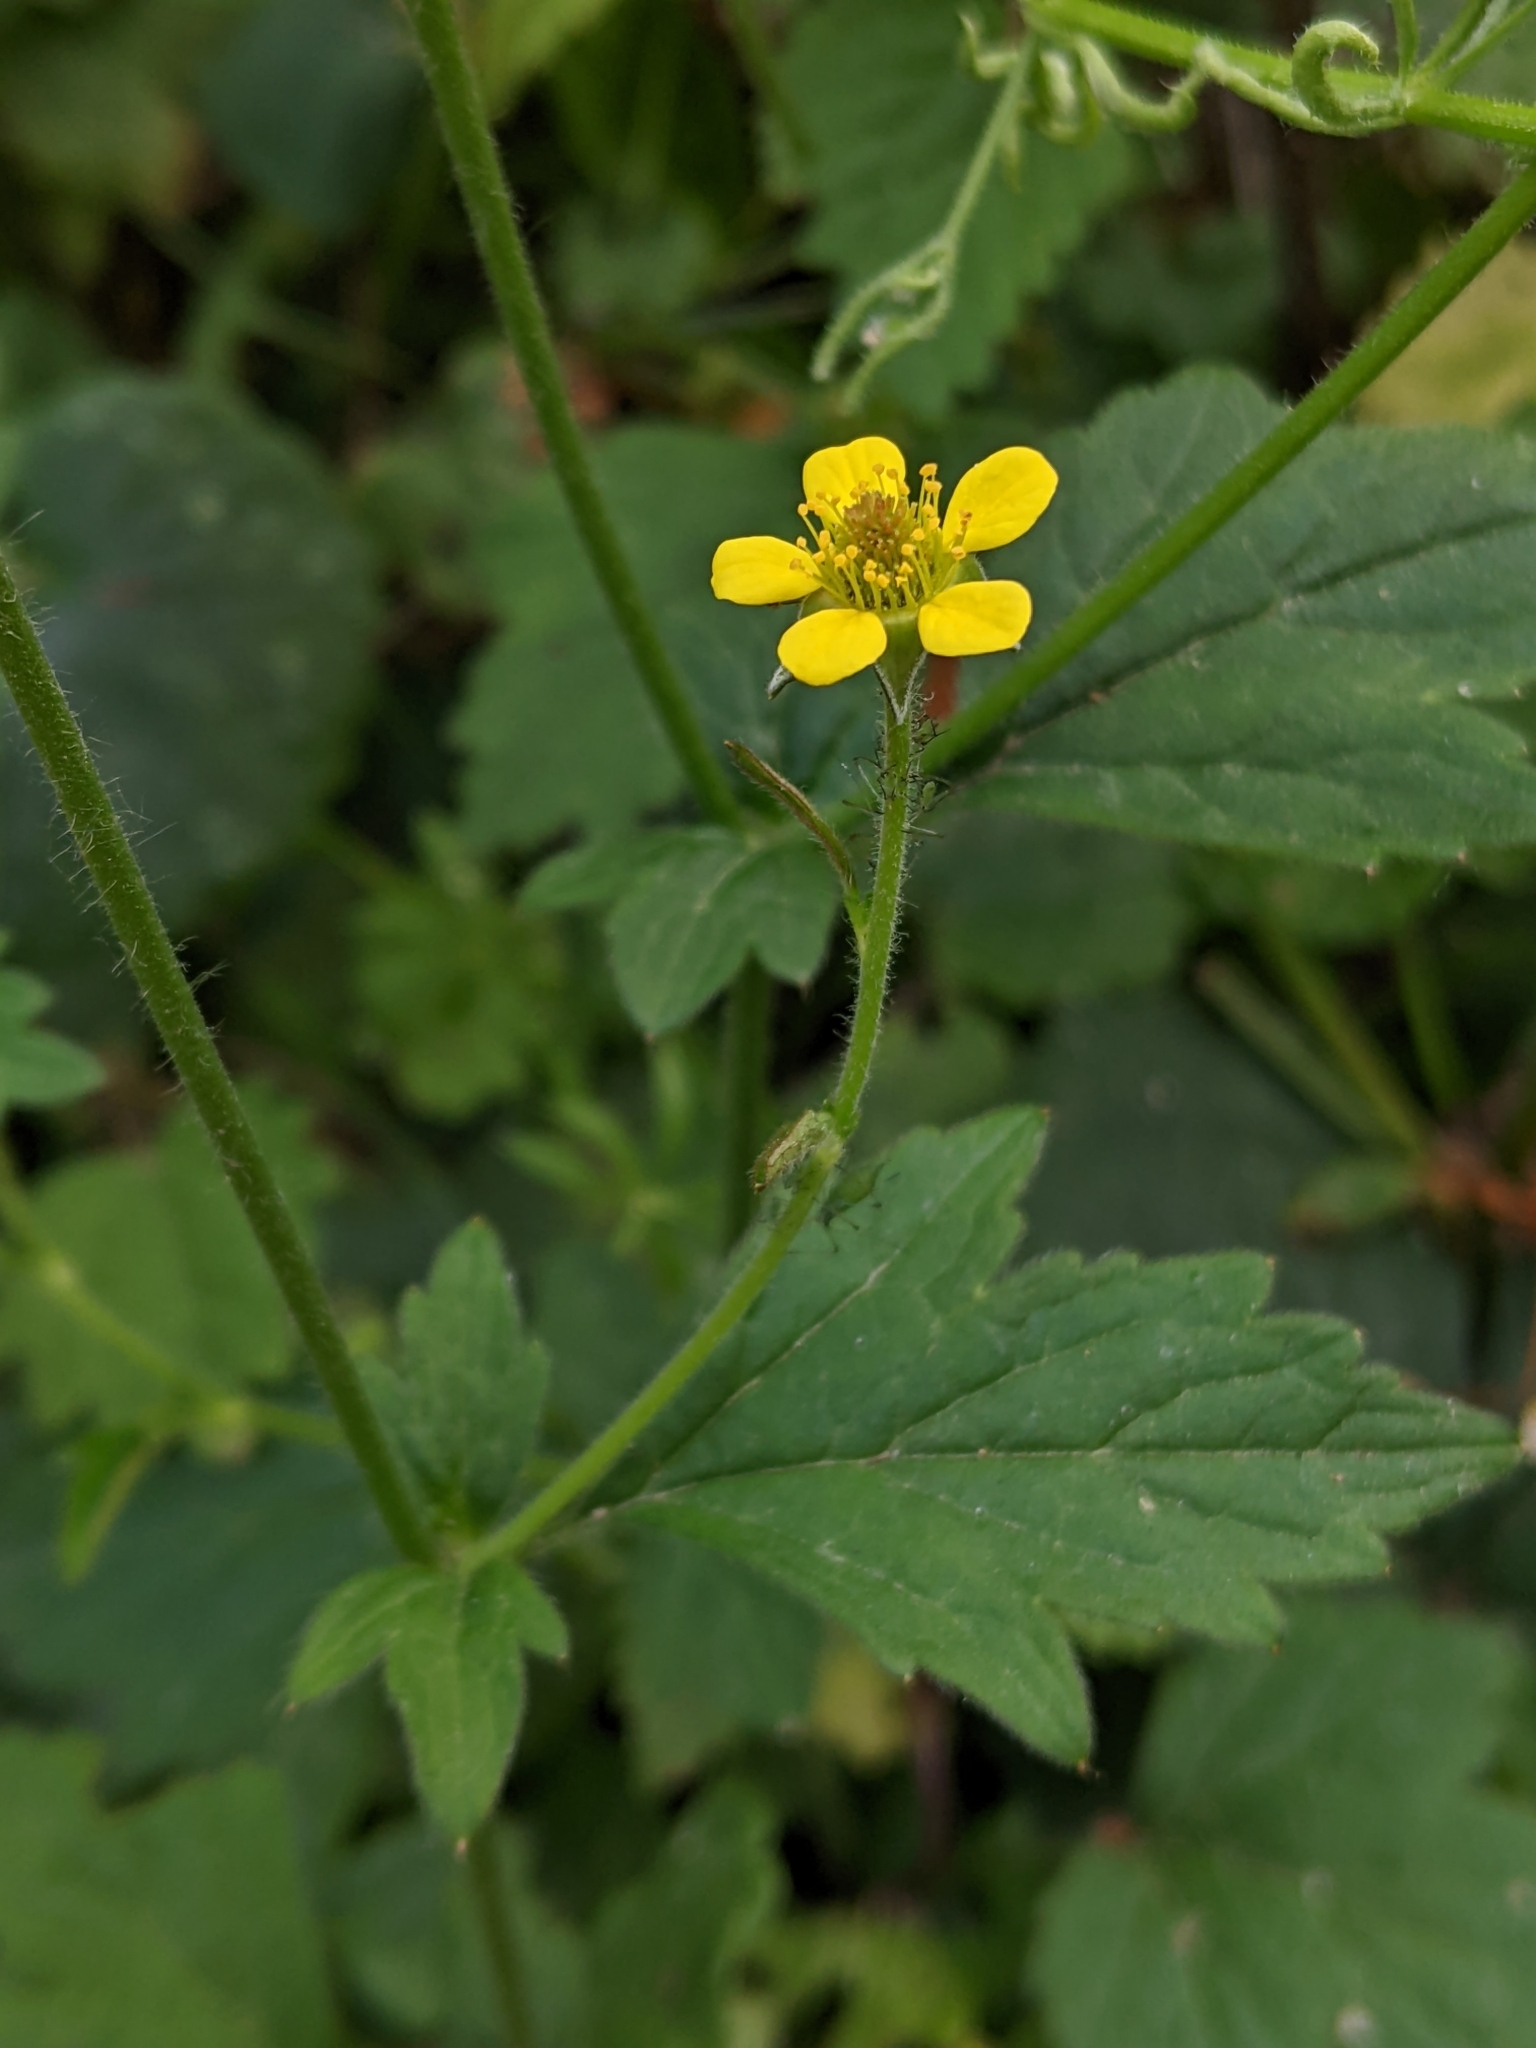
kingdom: Plantae
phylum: Tracheophyta
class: Magnoliopsida
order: Rosales
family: Rosaceae
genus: Geum
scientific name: Geum urbanum
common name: Wood avens
